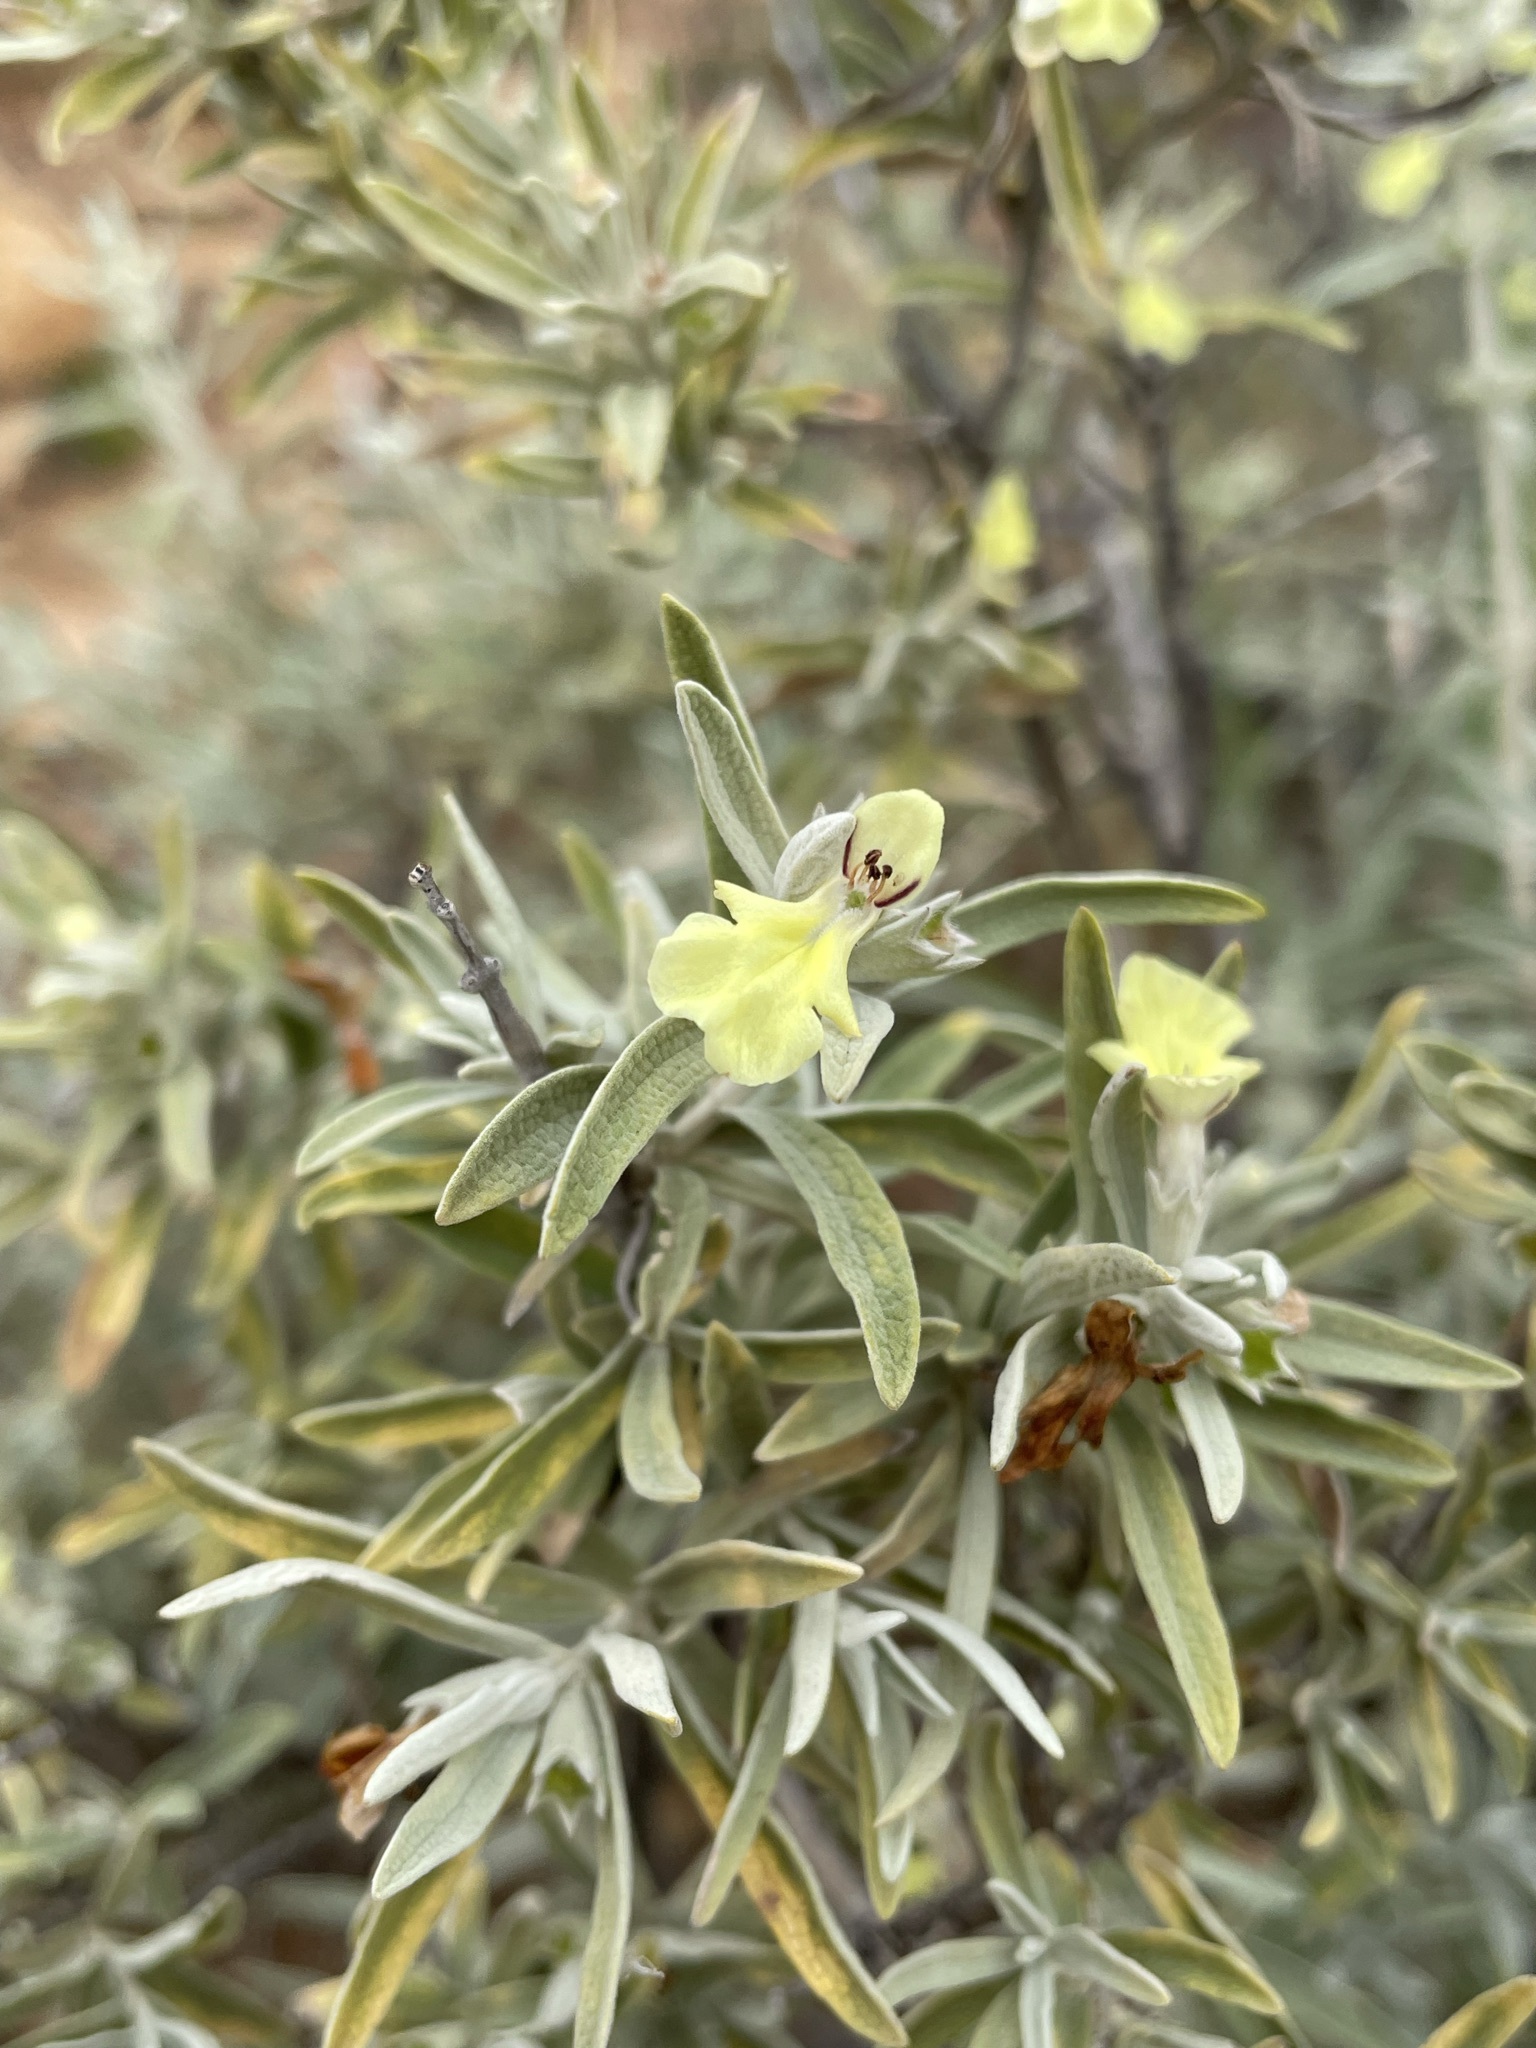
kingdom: Plantae
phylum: Tracheophyta
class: Magnoliopsida
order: Lamiales
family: Lamiaceae
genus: Stachys
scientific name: Stachys flavescens
